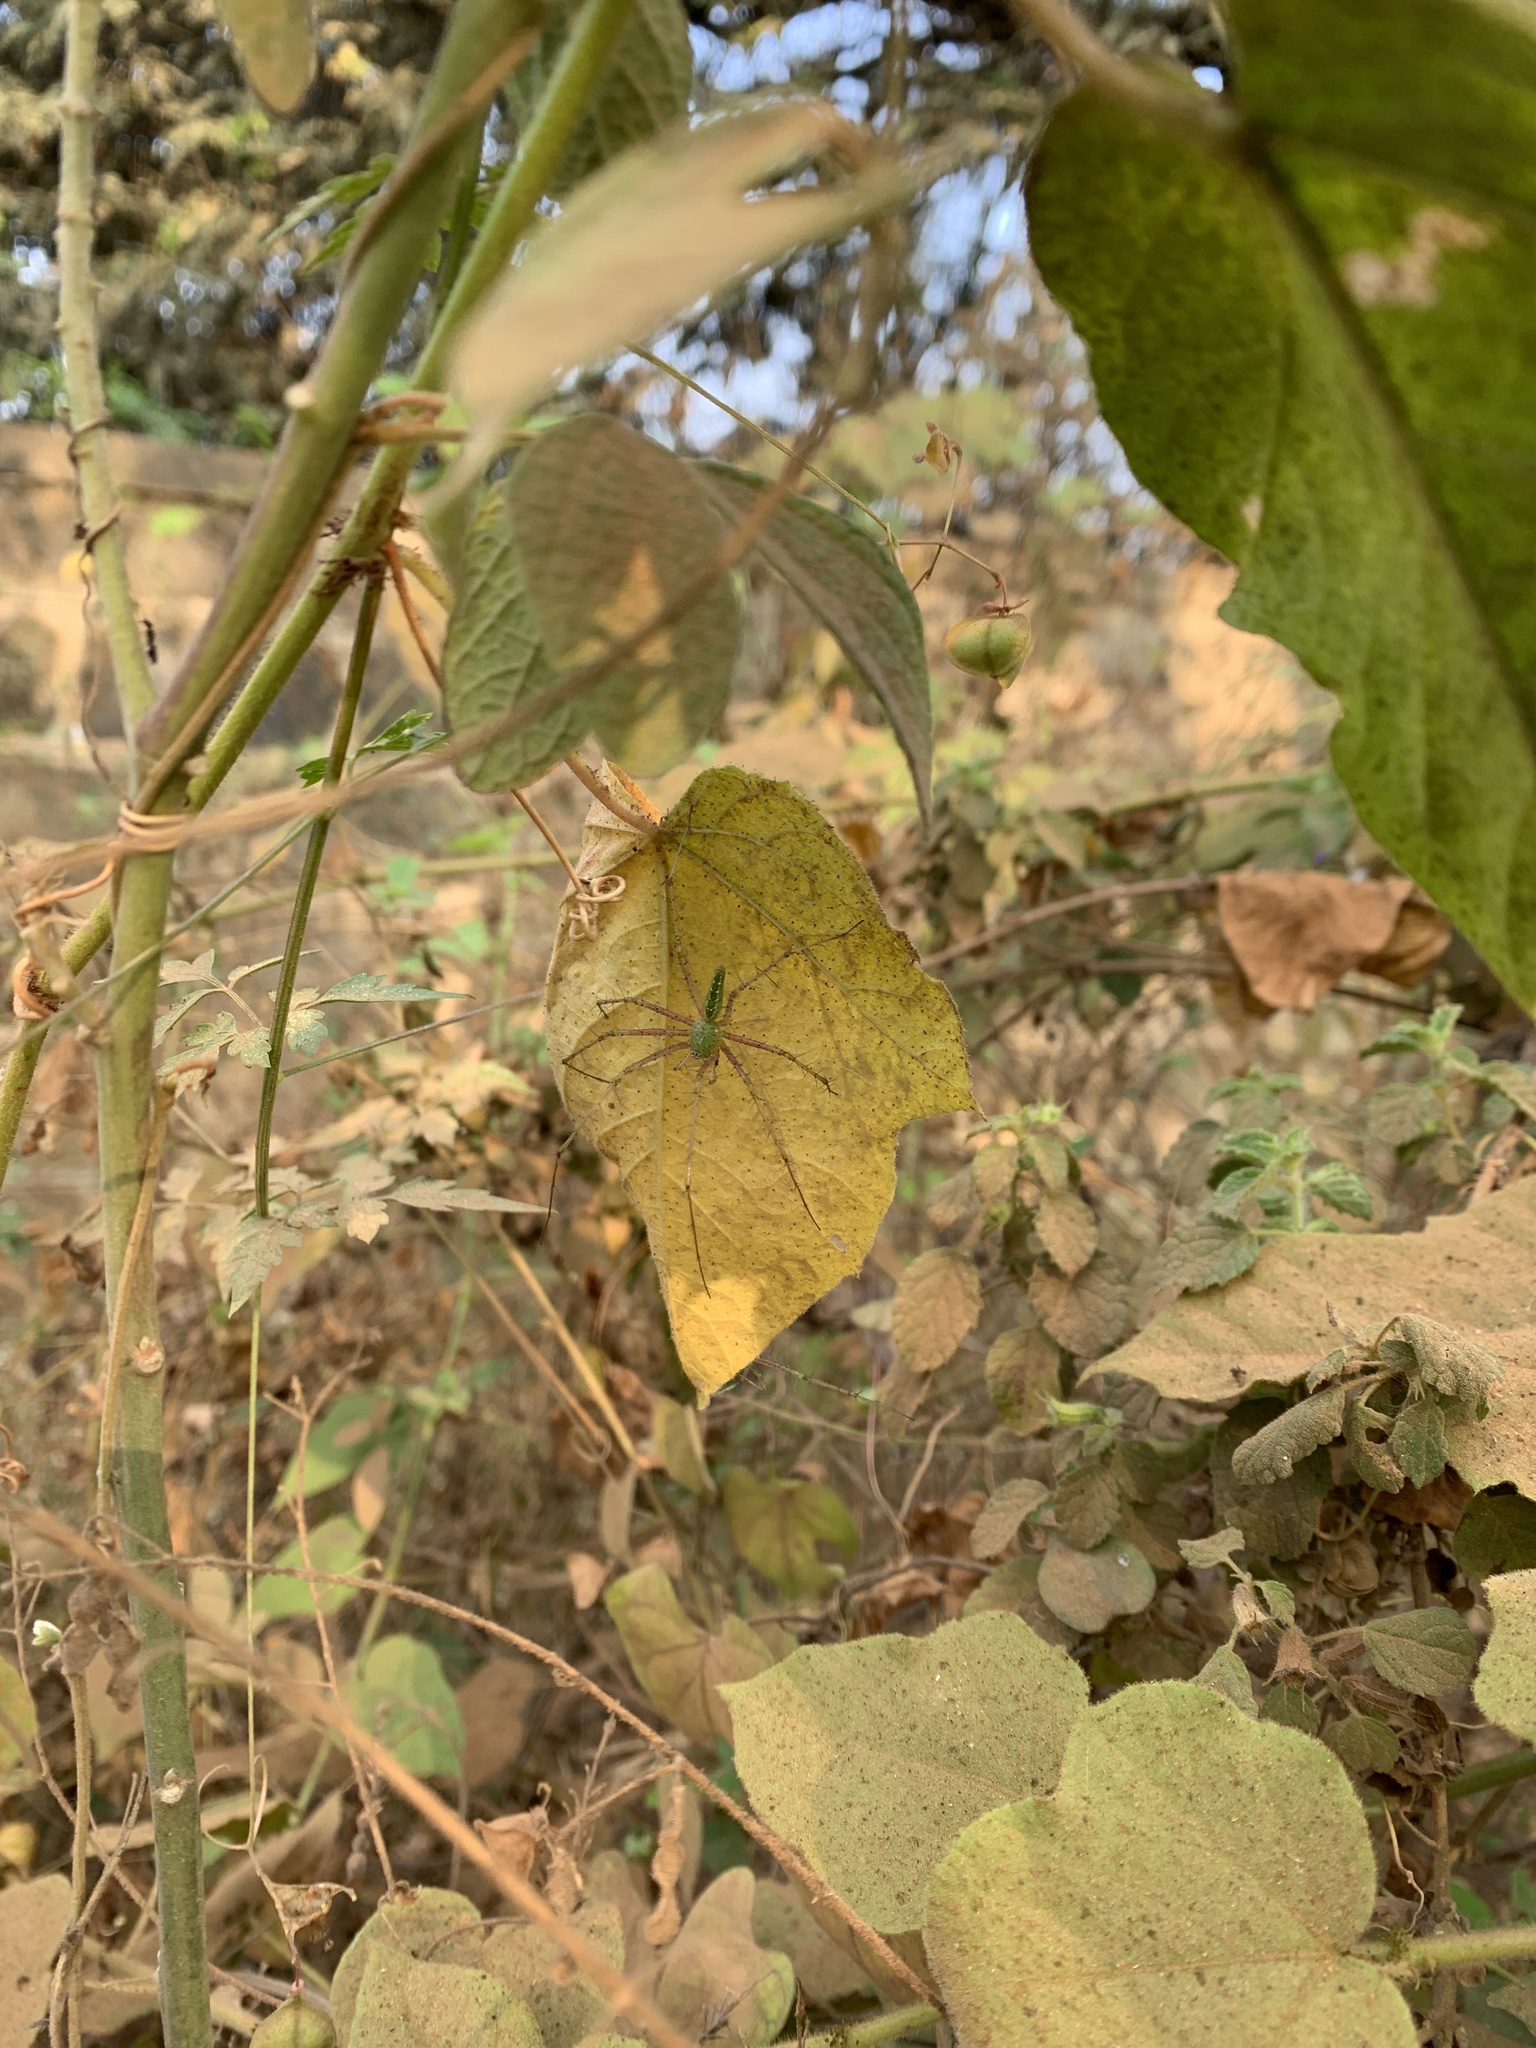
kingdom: Animalia
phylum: Arthropoda
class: Arachnida
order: Araneae
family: Oxyopidae
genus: Peucetia
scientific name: Peucetia viridana
